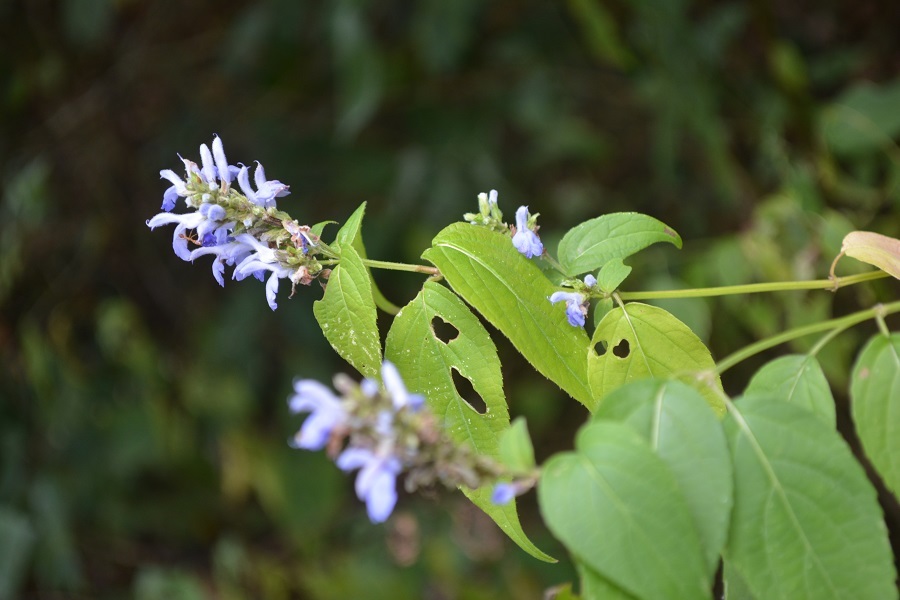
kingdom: Plantae
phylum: Tracheophyta
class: Magnoliopsida
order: Lamiales
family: Lamiaceae
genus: Salvia
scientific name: Salvia connivens
